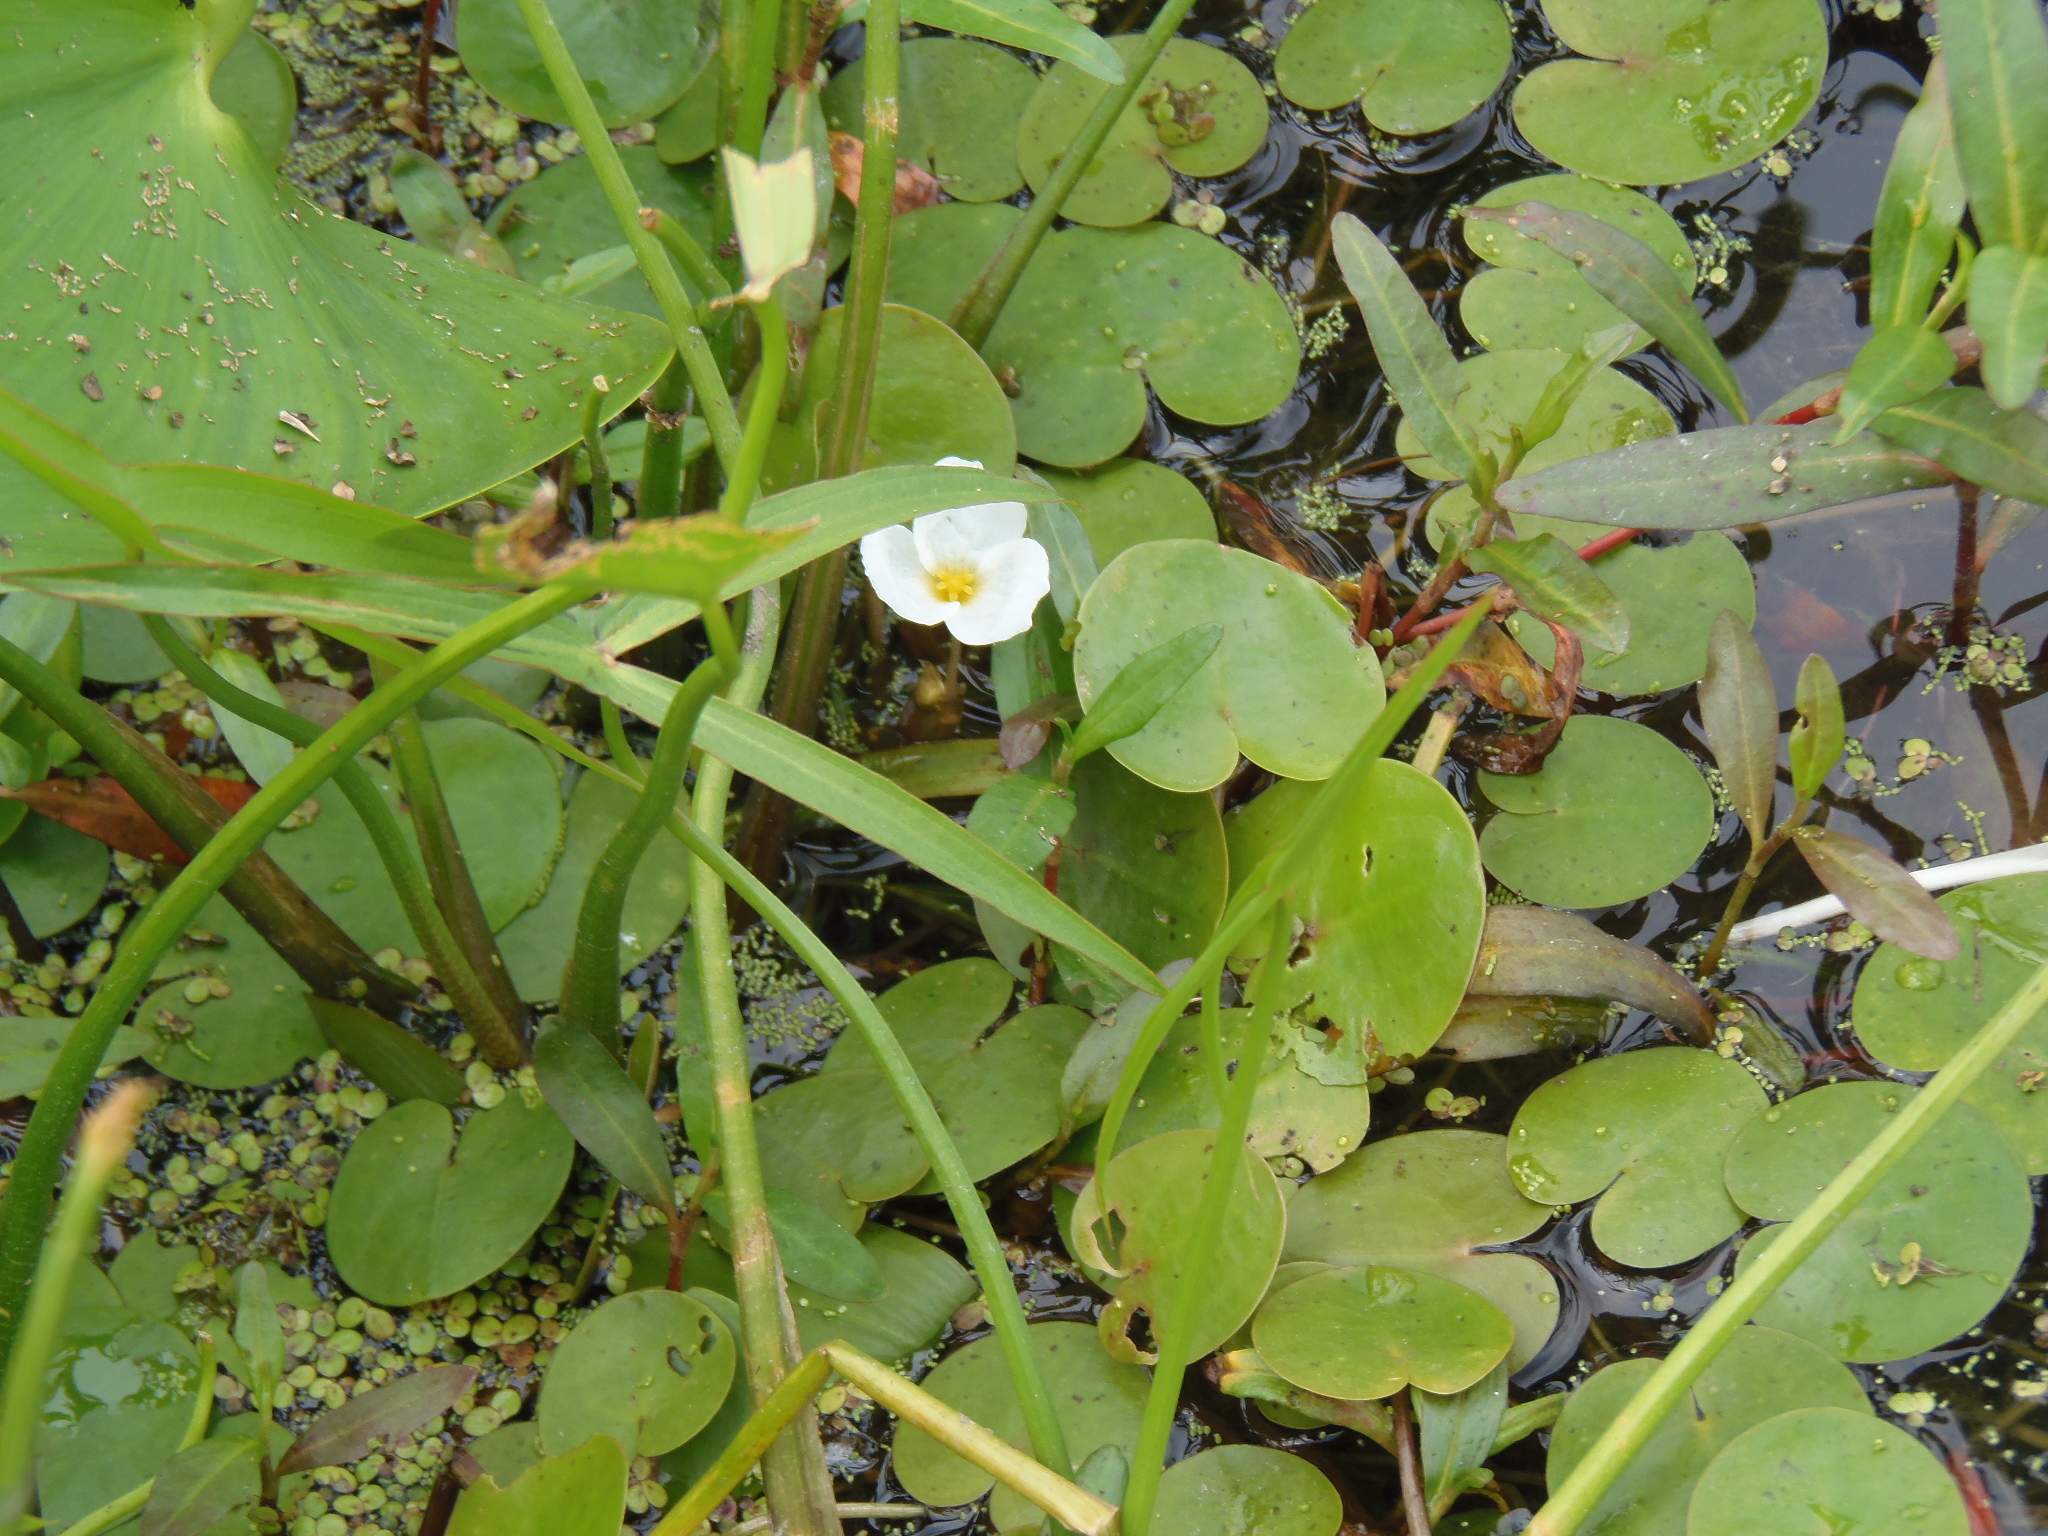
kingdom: Plantae
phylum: Tracheophyta
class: Liliopsida
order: Alismatales
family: Hydrocharitaceae
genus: Hydrocharis
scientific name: Hydrocharis morsus-ranae
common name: Frogbit
